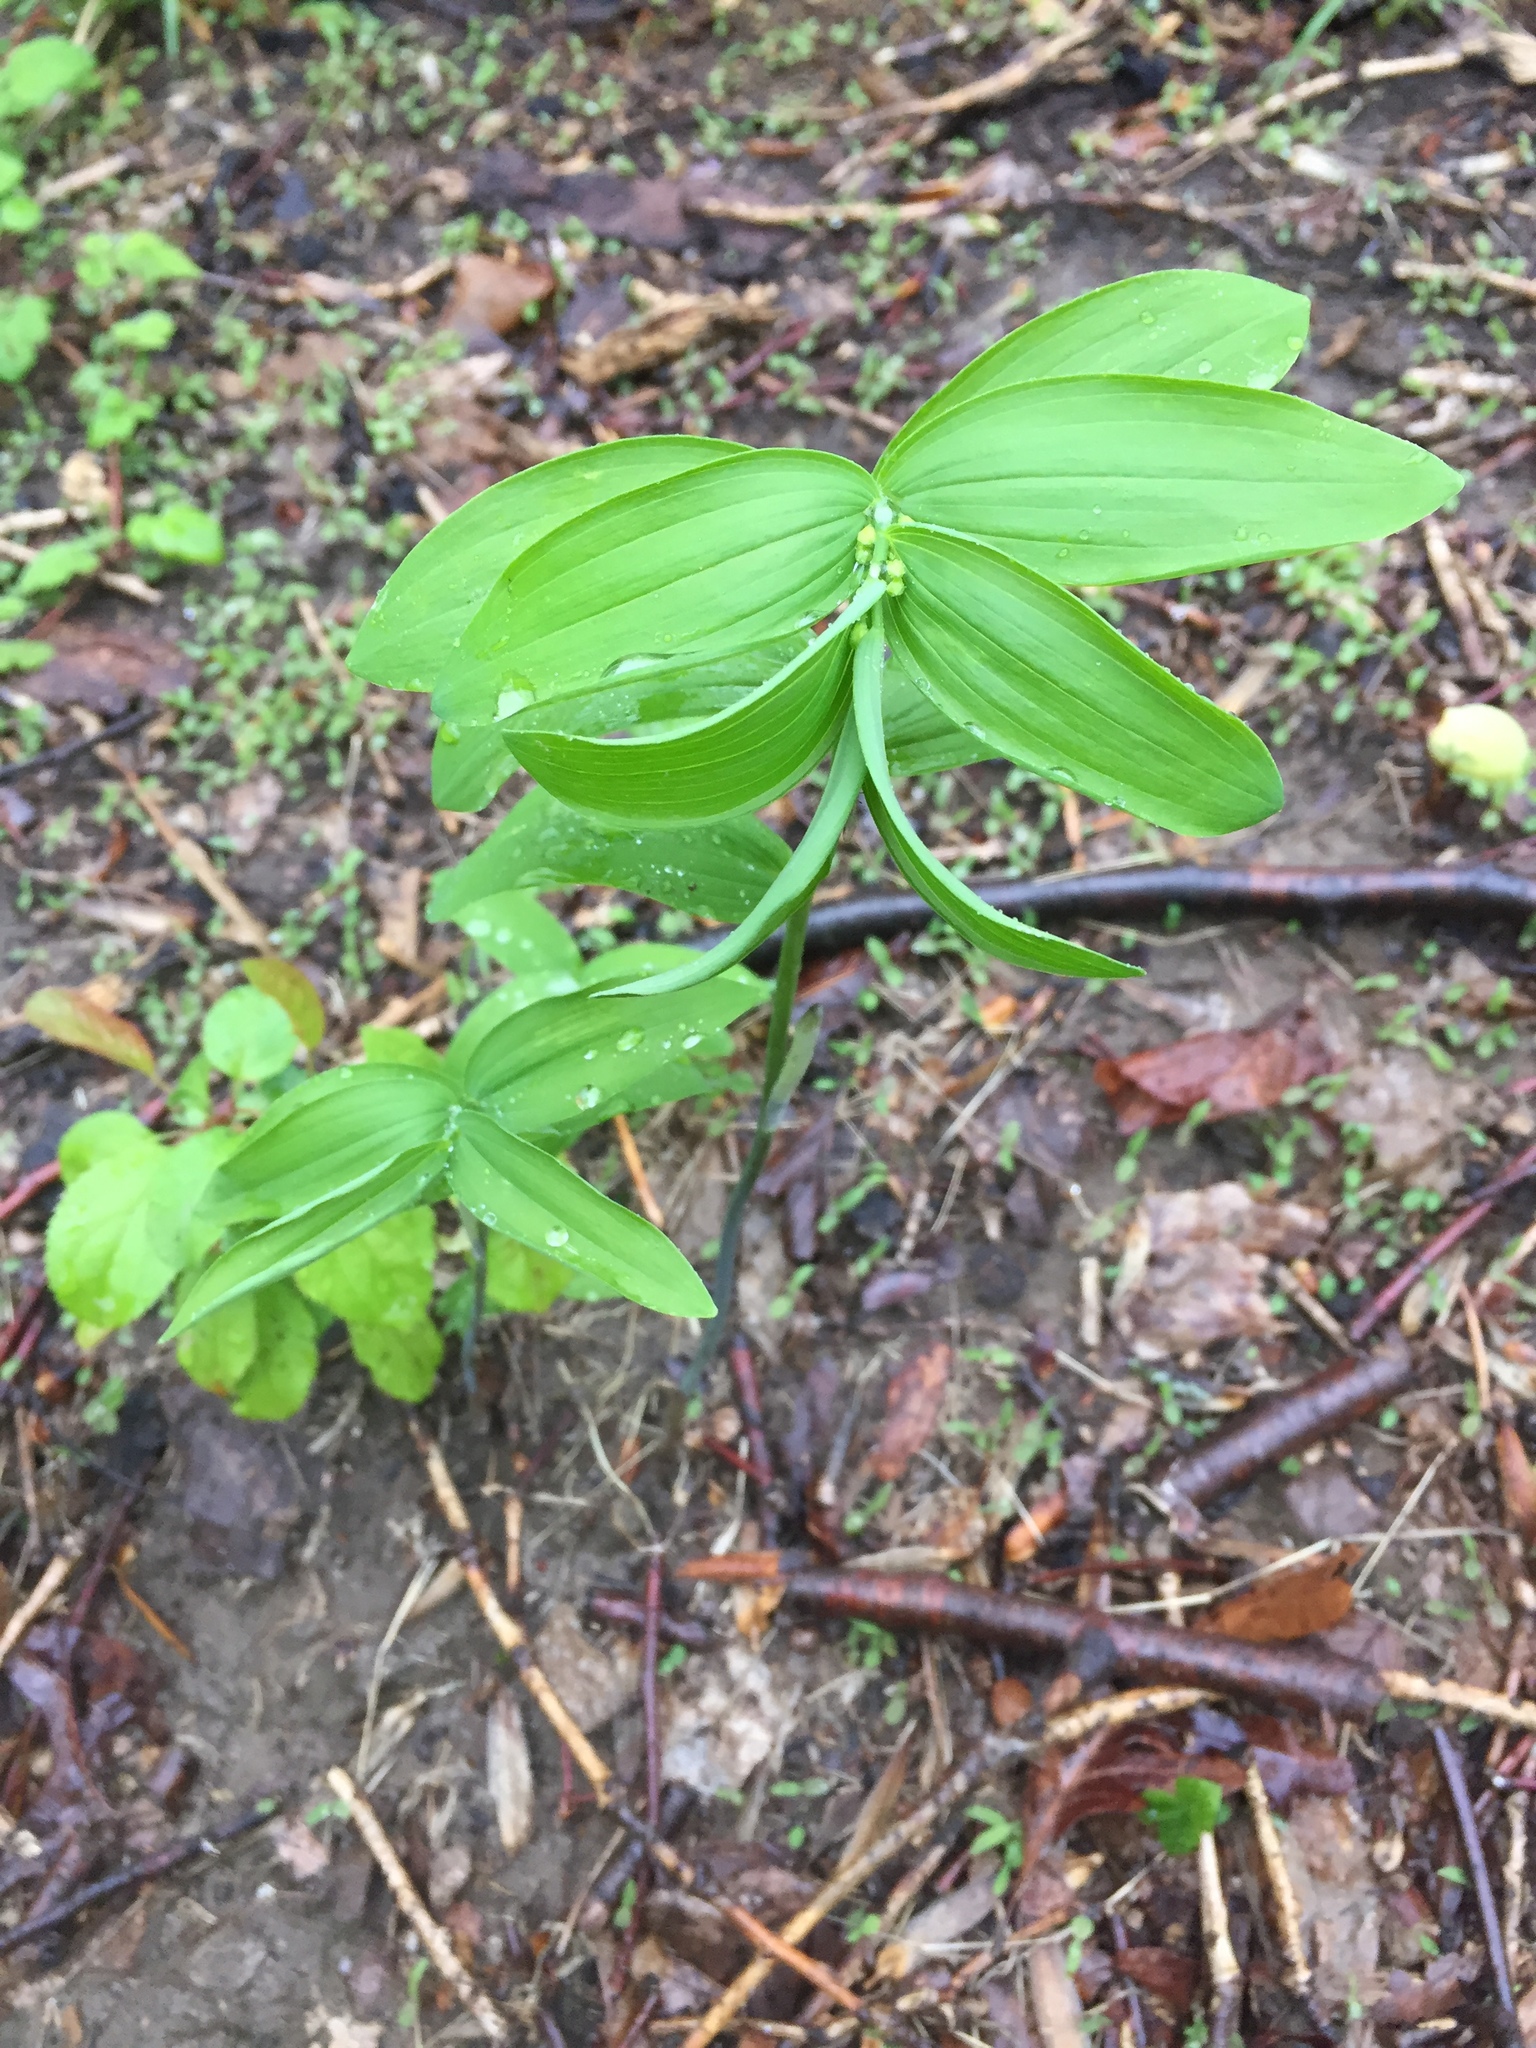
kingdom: Plantae
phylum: Tracheophyta
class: Liliopsida
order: Asparagales
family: Asparagaceae
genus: Polygonatum
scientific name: Polygonatum biflorum
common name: American solomon's-seal
